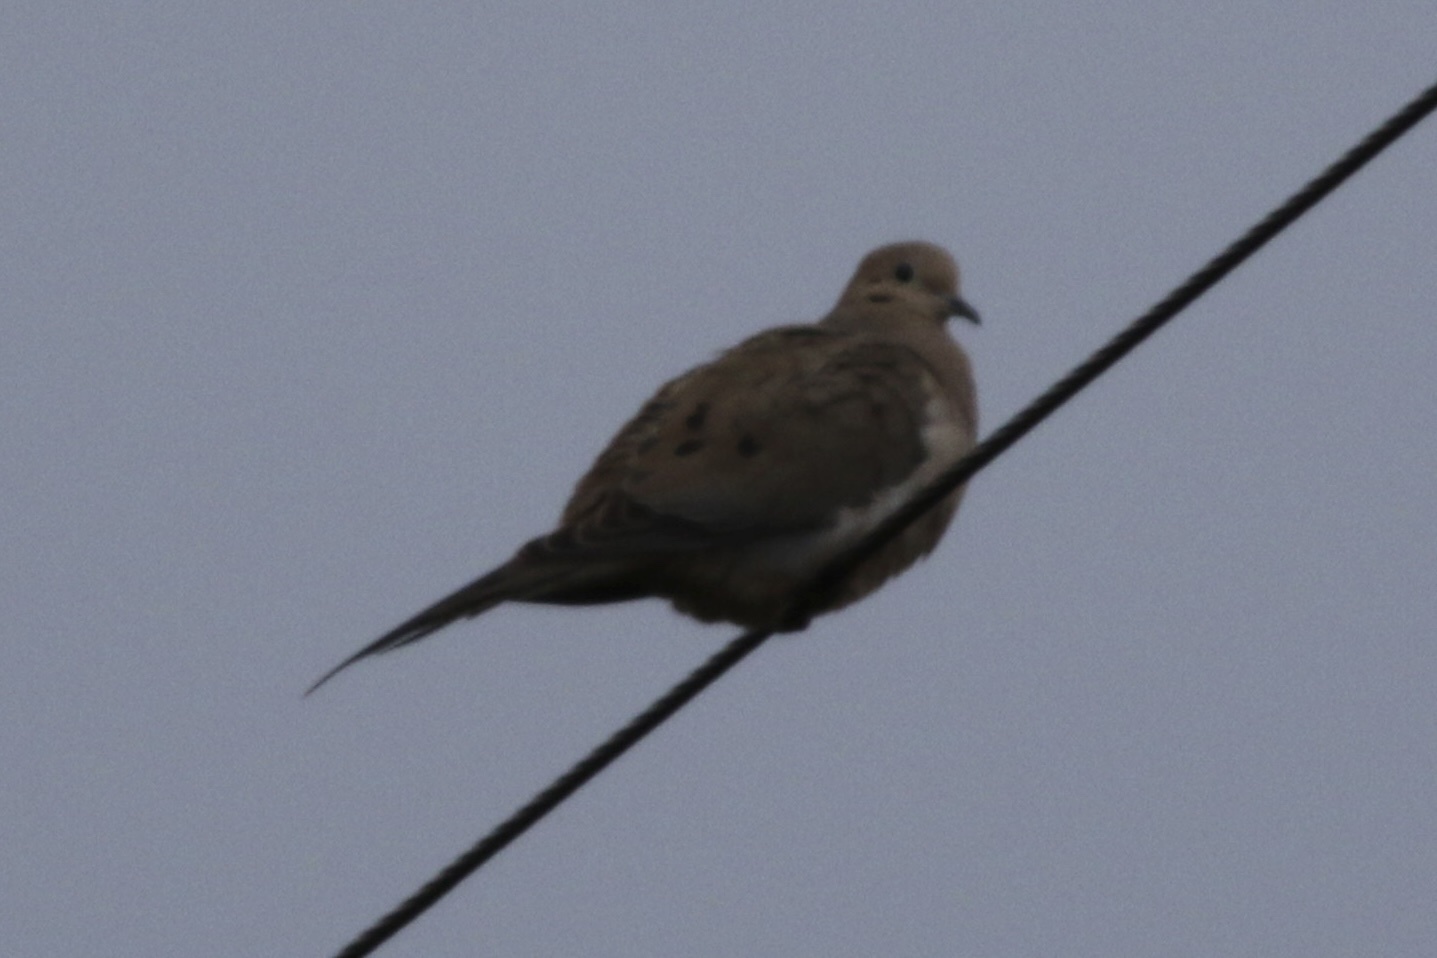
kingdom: Animalia
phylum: Chordata
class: Aves
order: Columbiformes
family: Columbidae
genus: Zenaida
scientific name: Zenaida macroura
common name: Mourning dove
